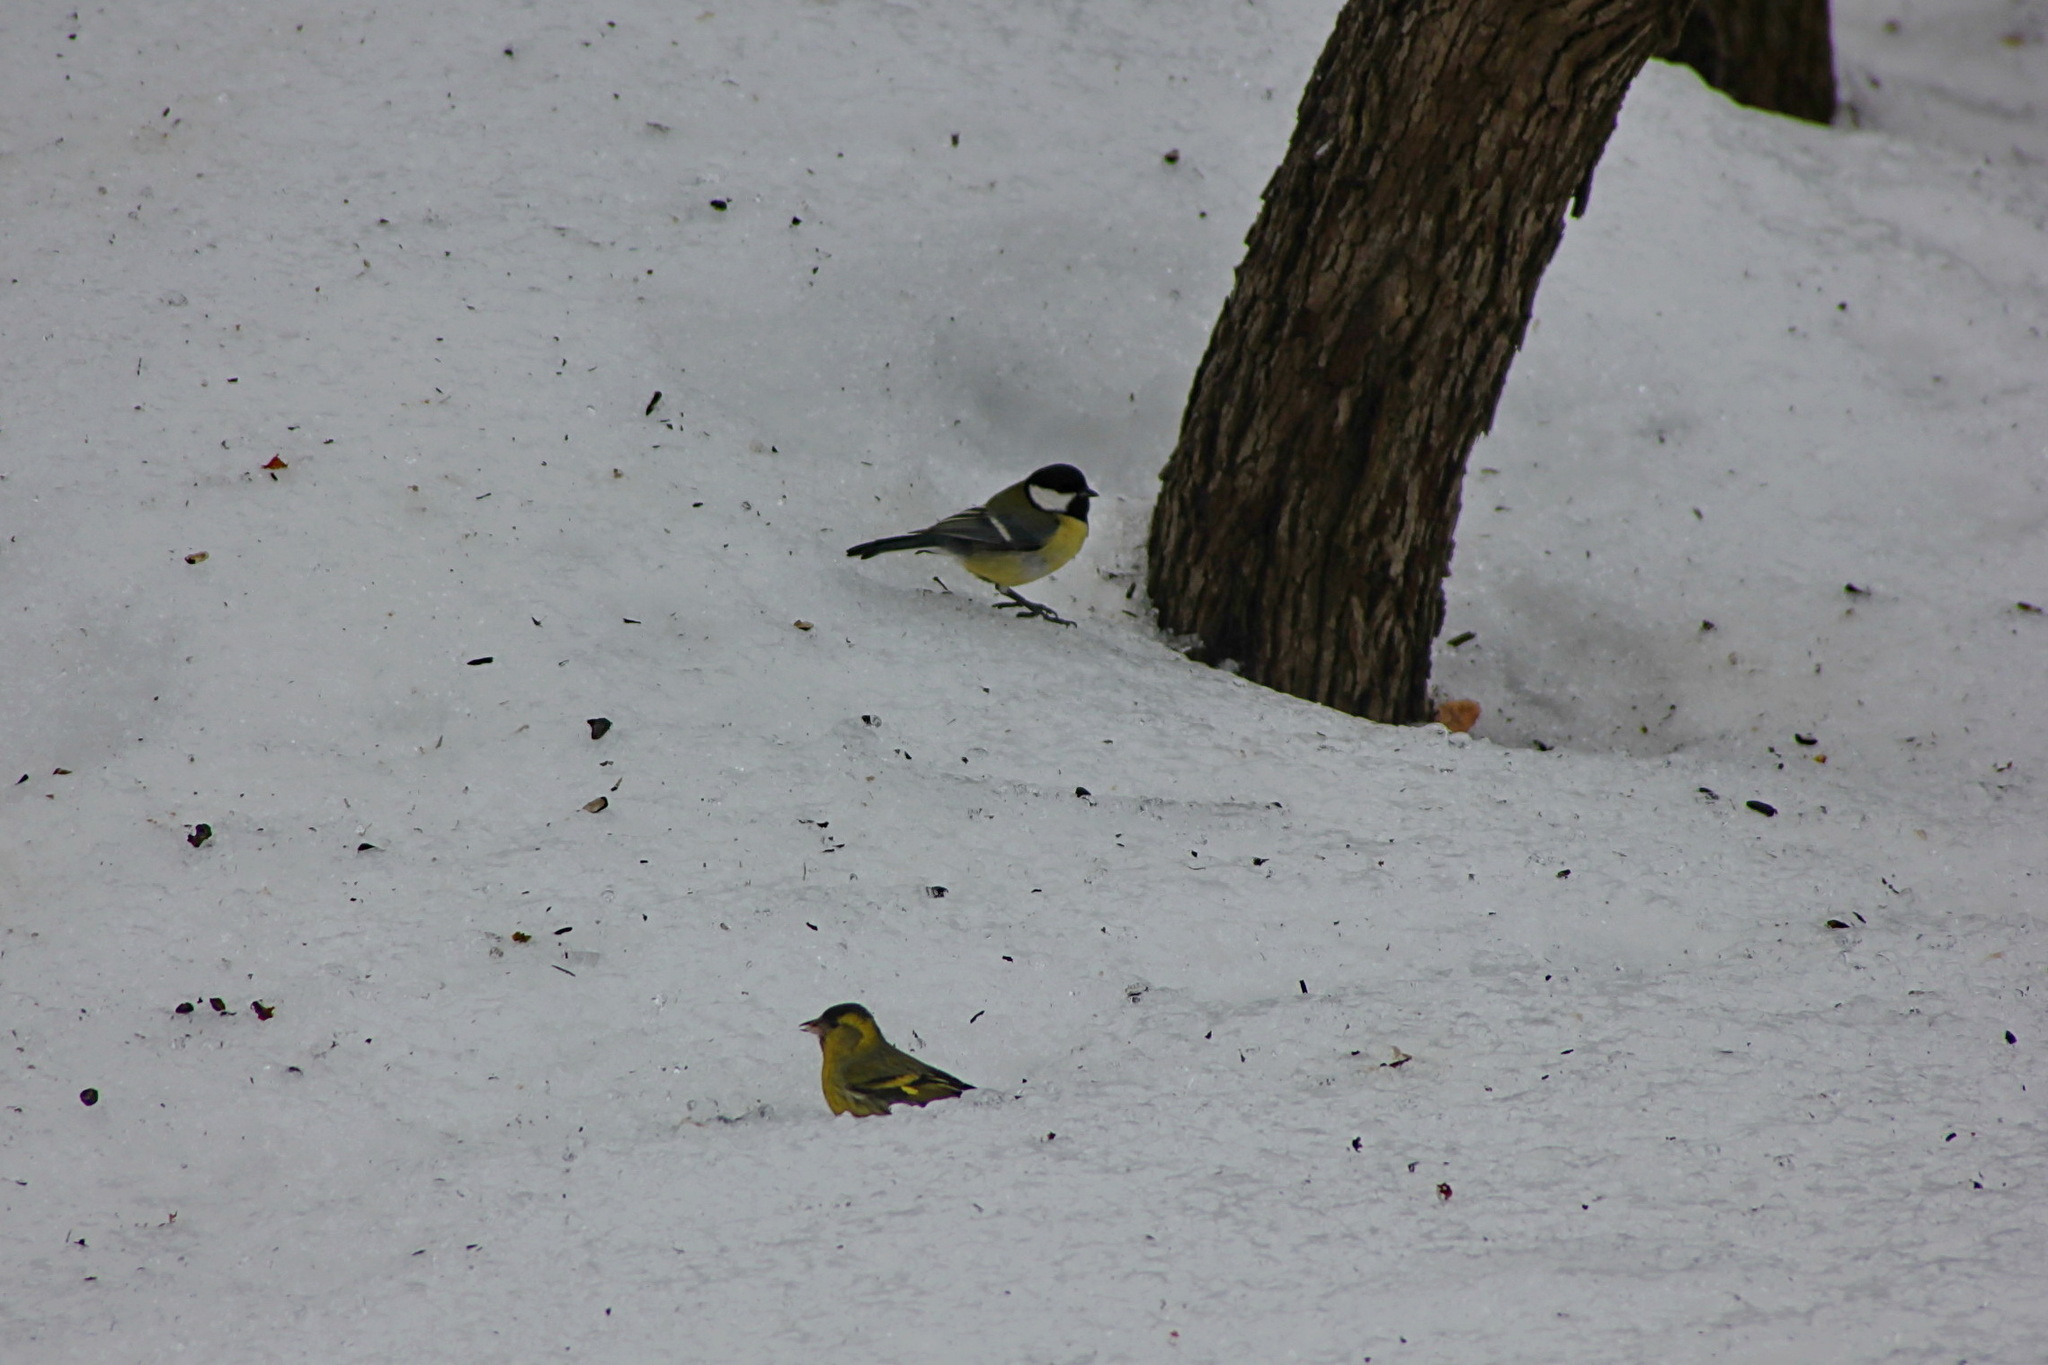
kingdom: Animalia
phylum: Chordata
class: Aves
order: Passeriformes
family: Paridae
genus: Parus
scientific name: Parus major
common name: Great tit
